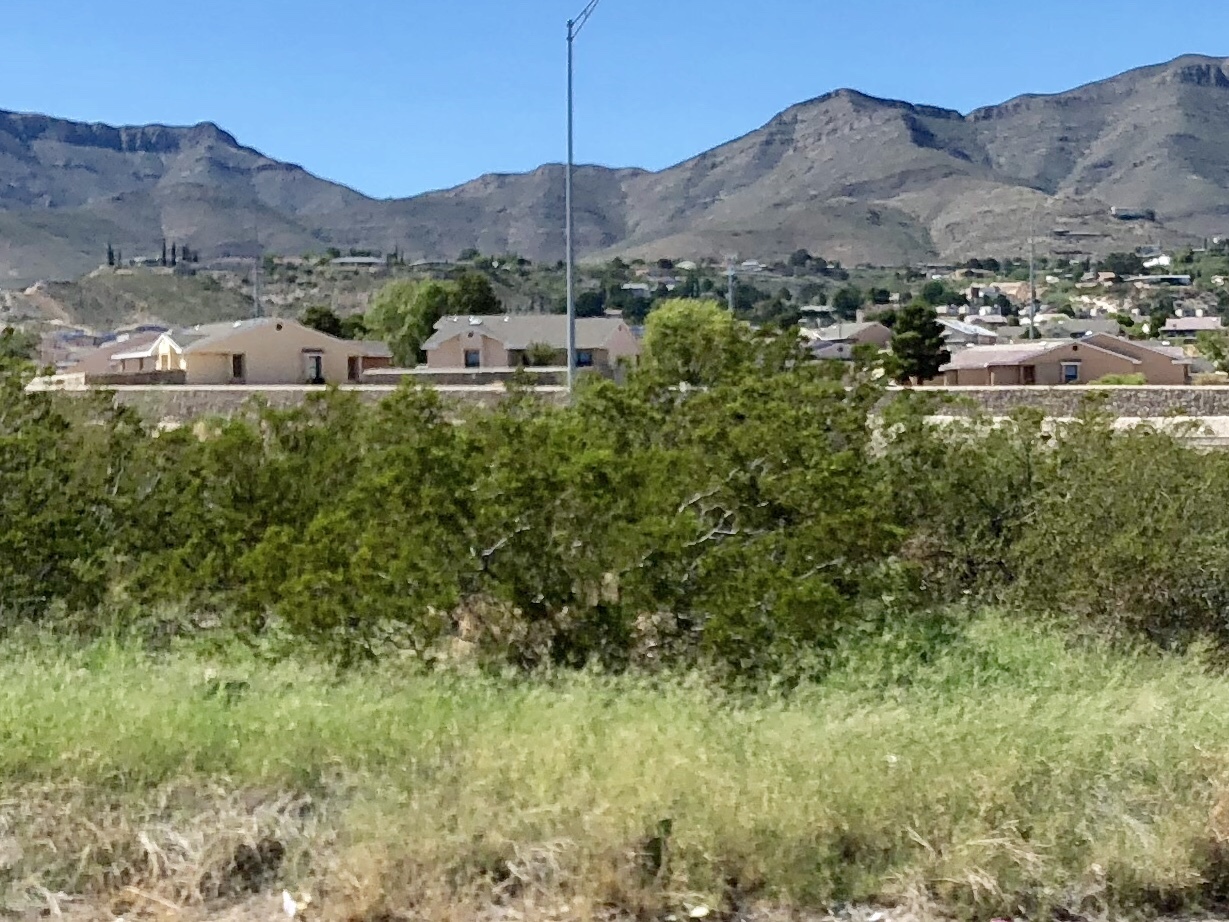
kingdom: Plantae
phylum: Tracheophyta
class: Magnoliopsida
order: Zygophyllales
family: Zygophyllaceae
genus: Larrea
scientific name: Larrea tridentata
